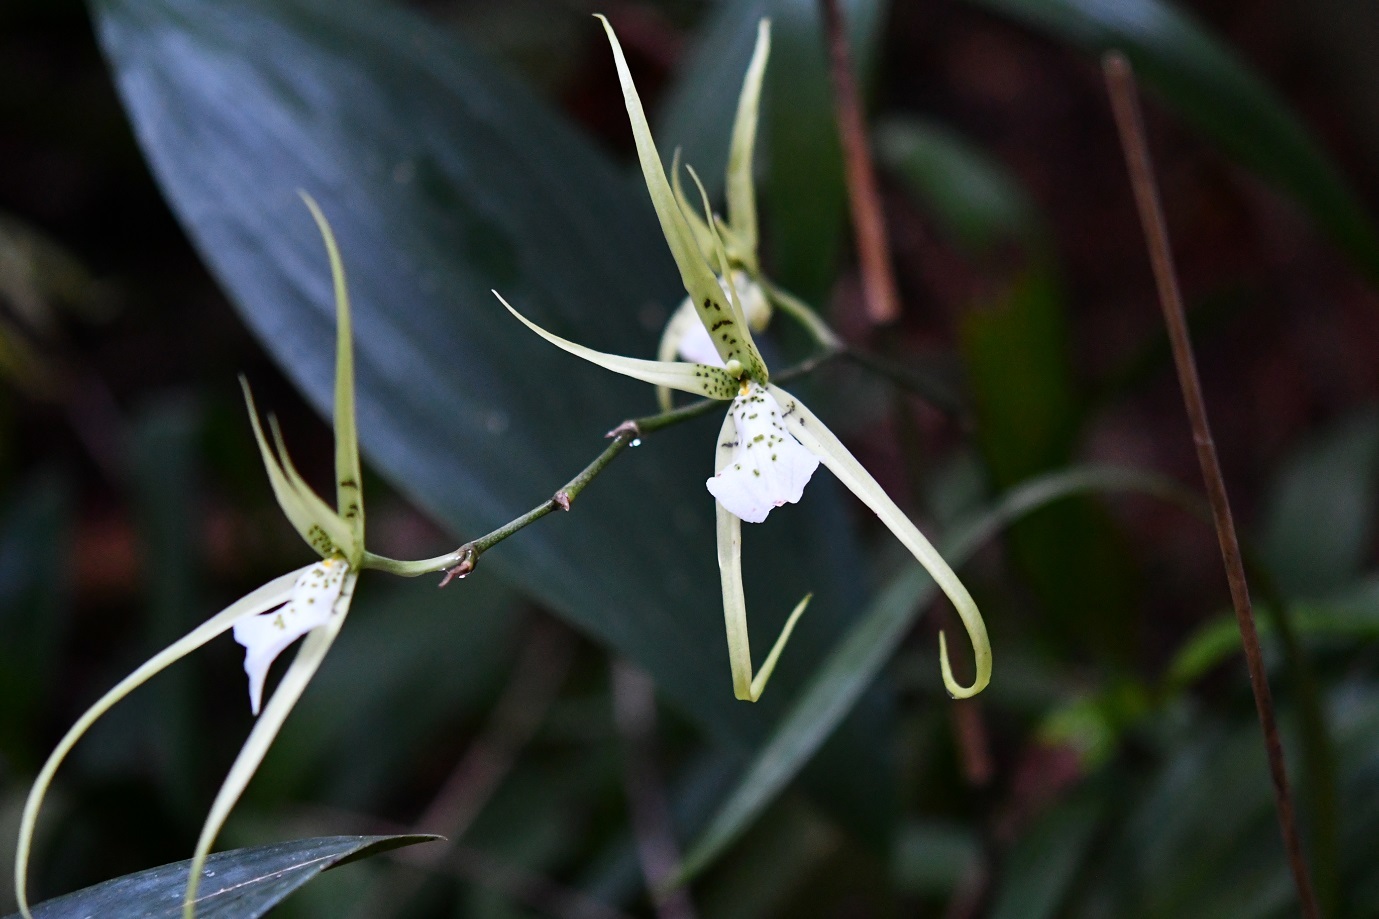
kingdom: Plantae
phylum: Tracheophyta
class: Liliopsida
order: Asparagales
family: Orchidaceae
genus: Brassia
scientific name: Brassia verrucosa
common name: Warty brassia
